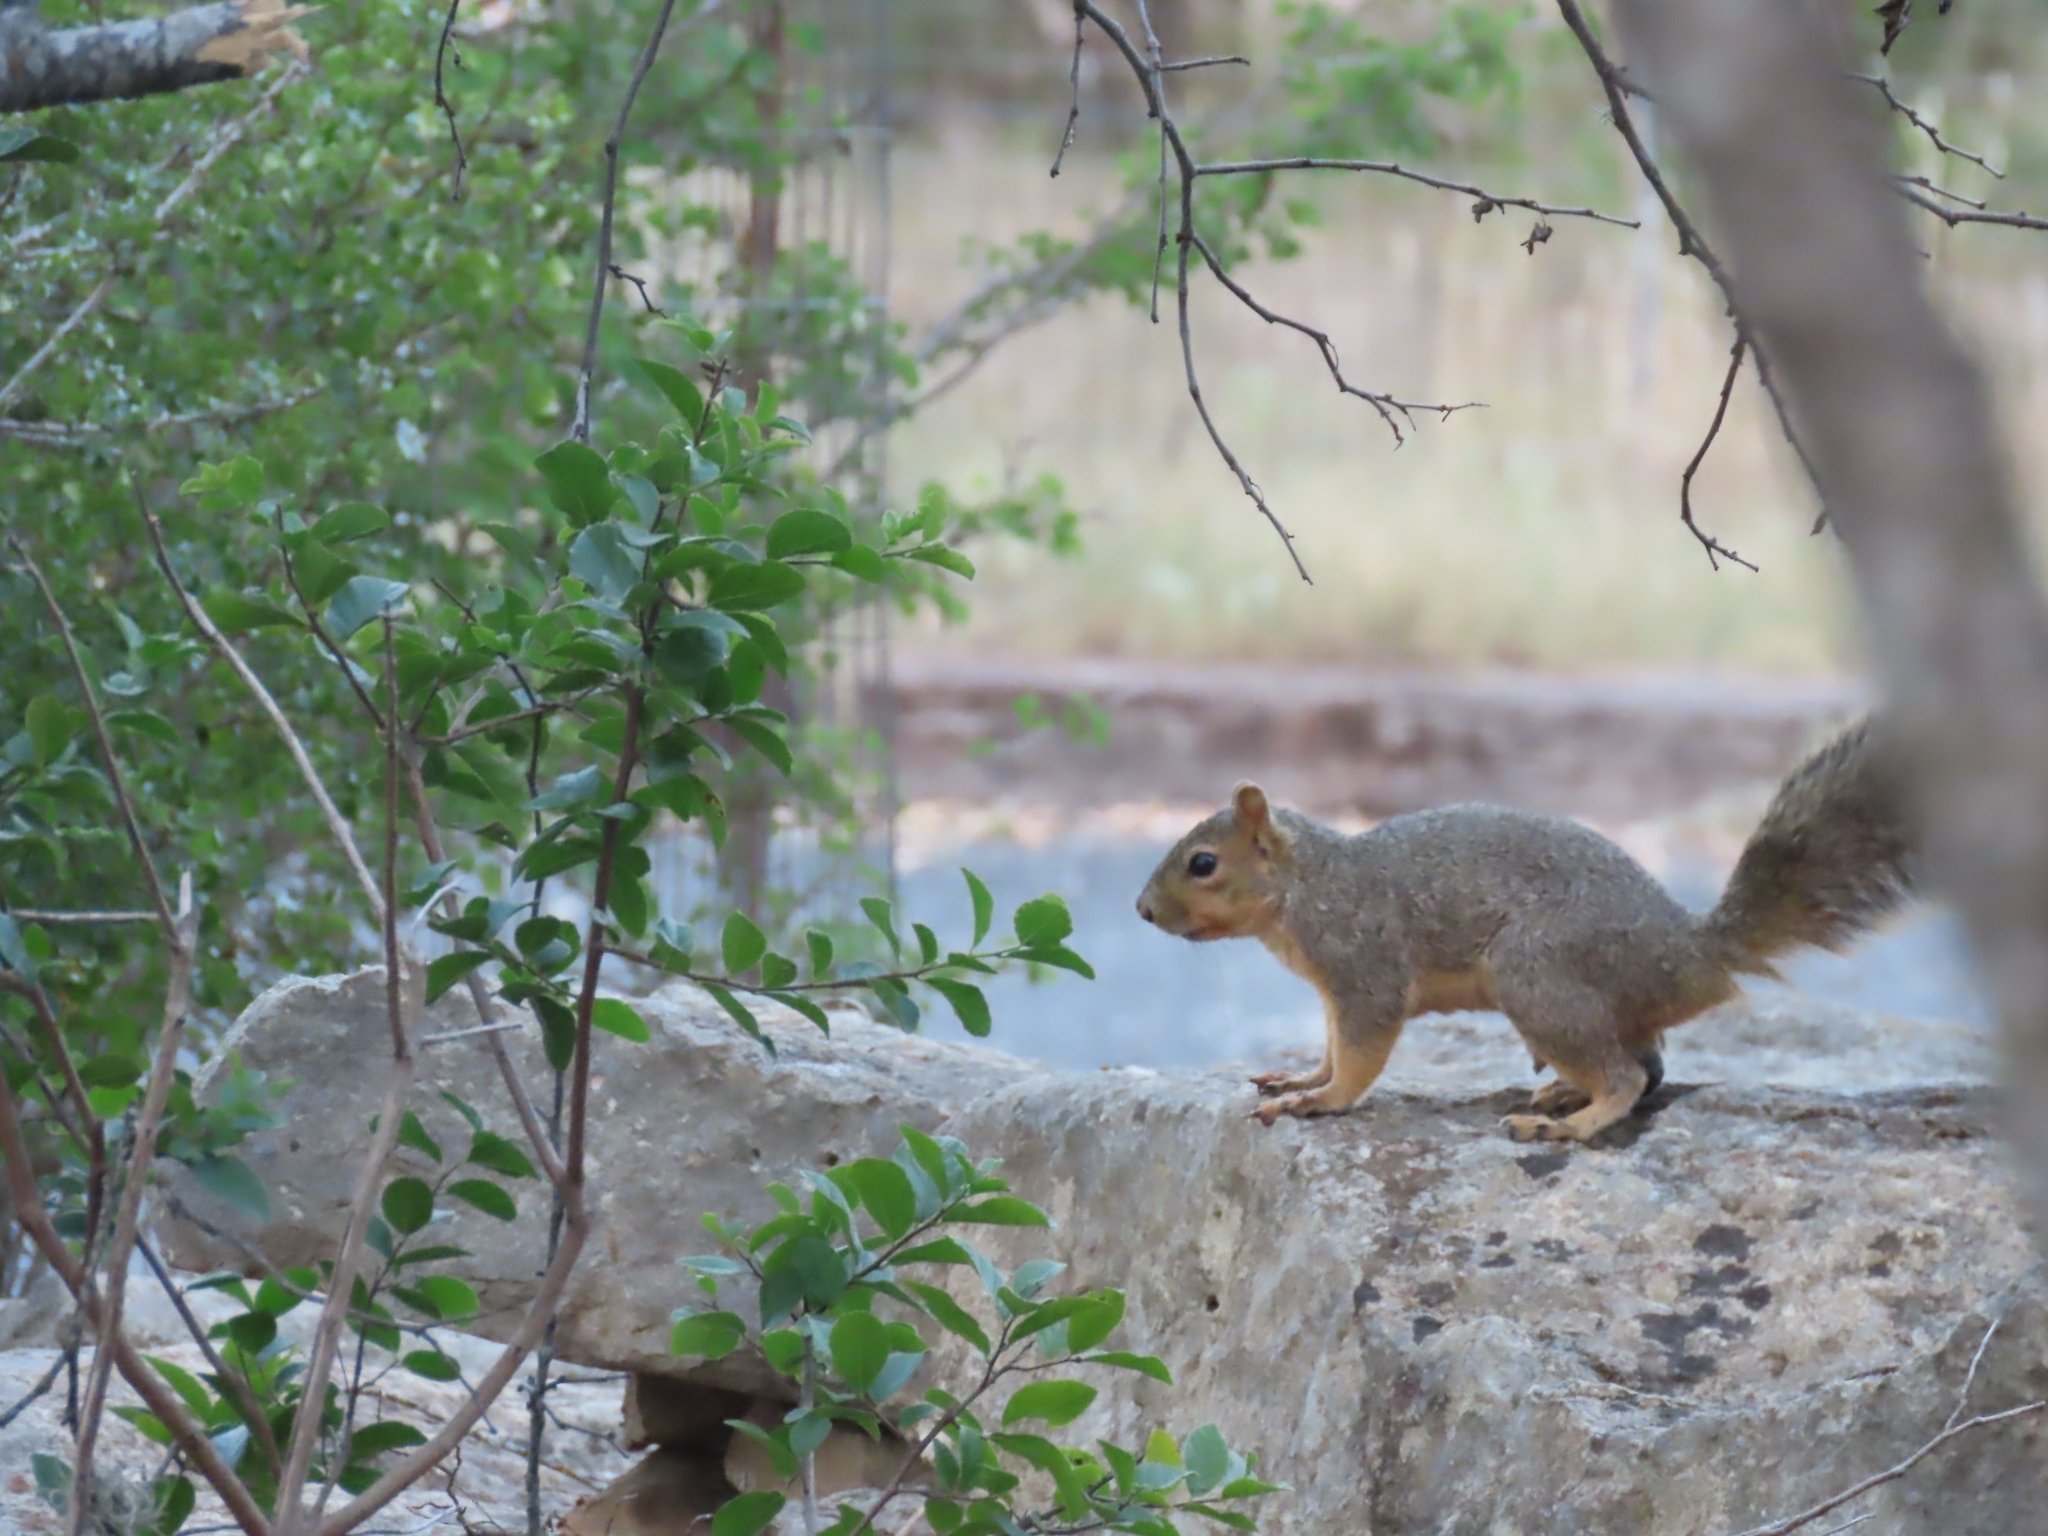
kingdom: Animalia
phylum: Chordata
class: Mammalia
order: Rodentia
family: Sciuridae
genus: Sciurus
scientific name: Sciurus niger
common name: Fox squirrel
